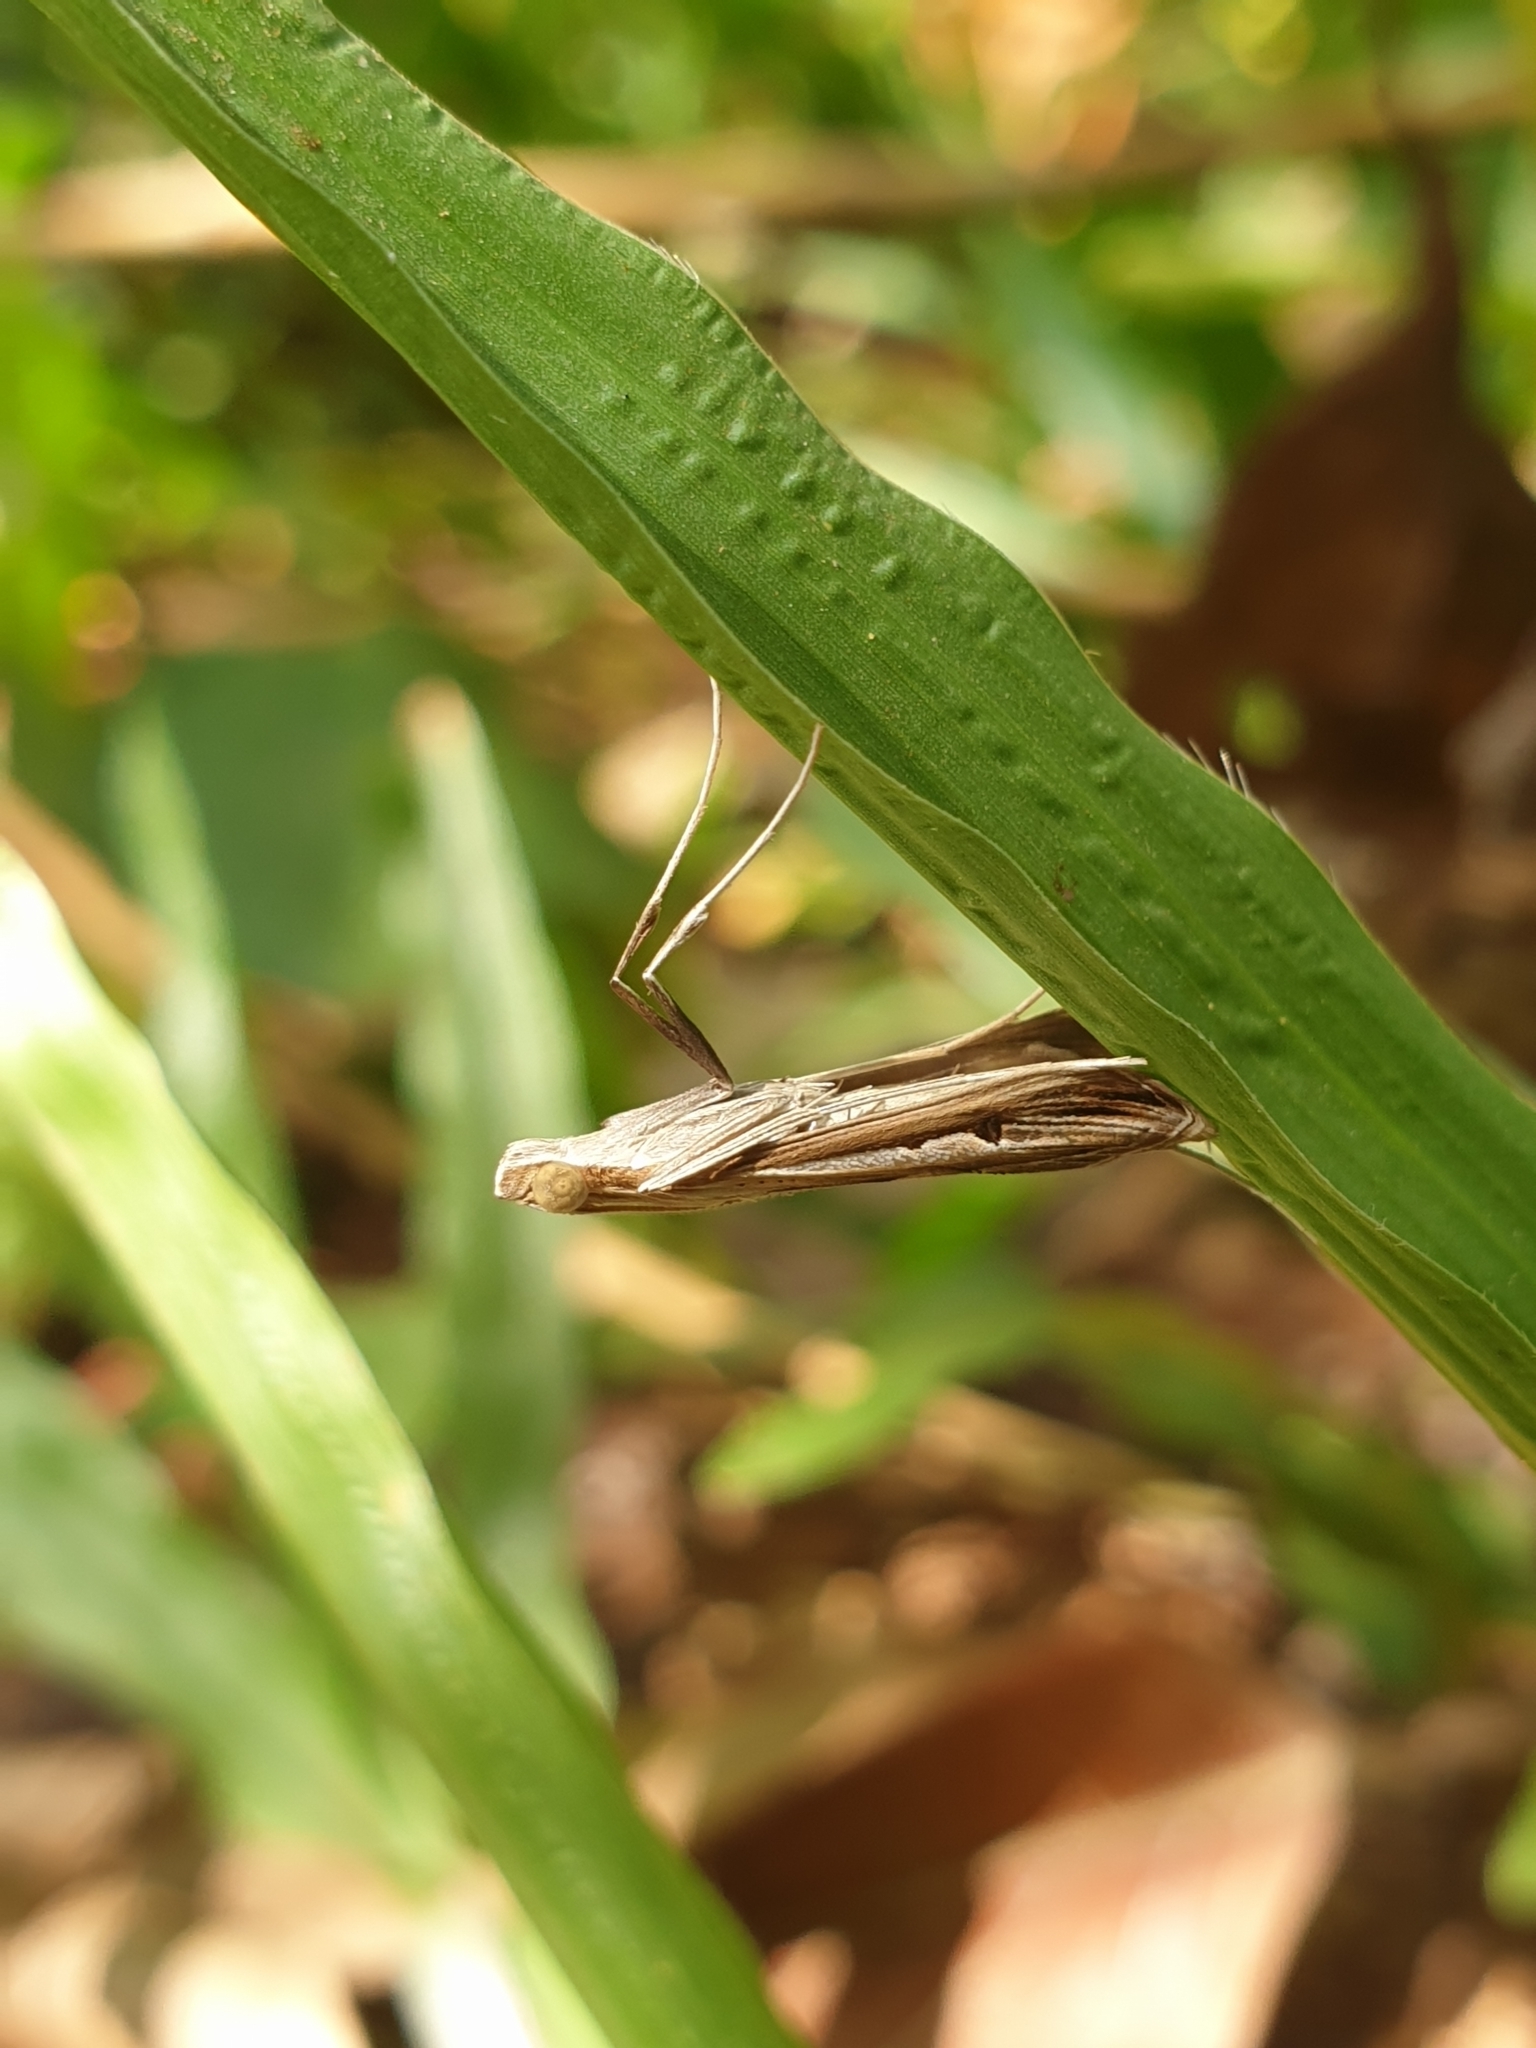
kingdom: Animalia
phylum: Arthropoda
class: Insecta
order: Lepidoptera
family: Crambidae
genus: Euclasta
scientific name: Euclasta
